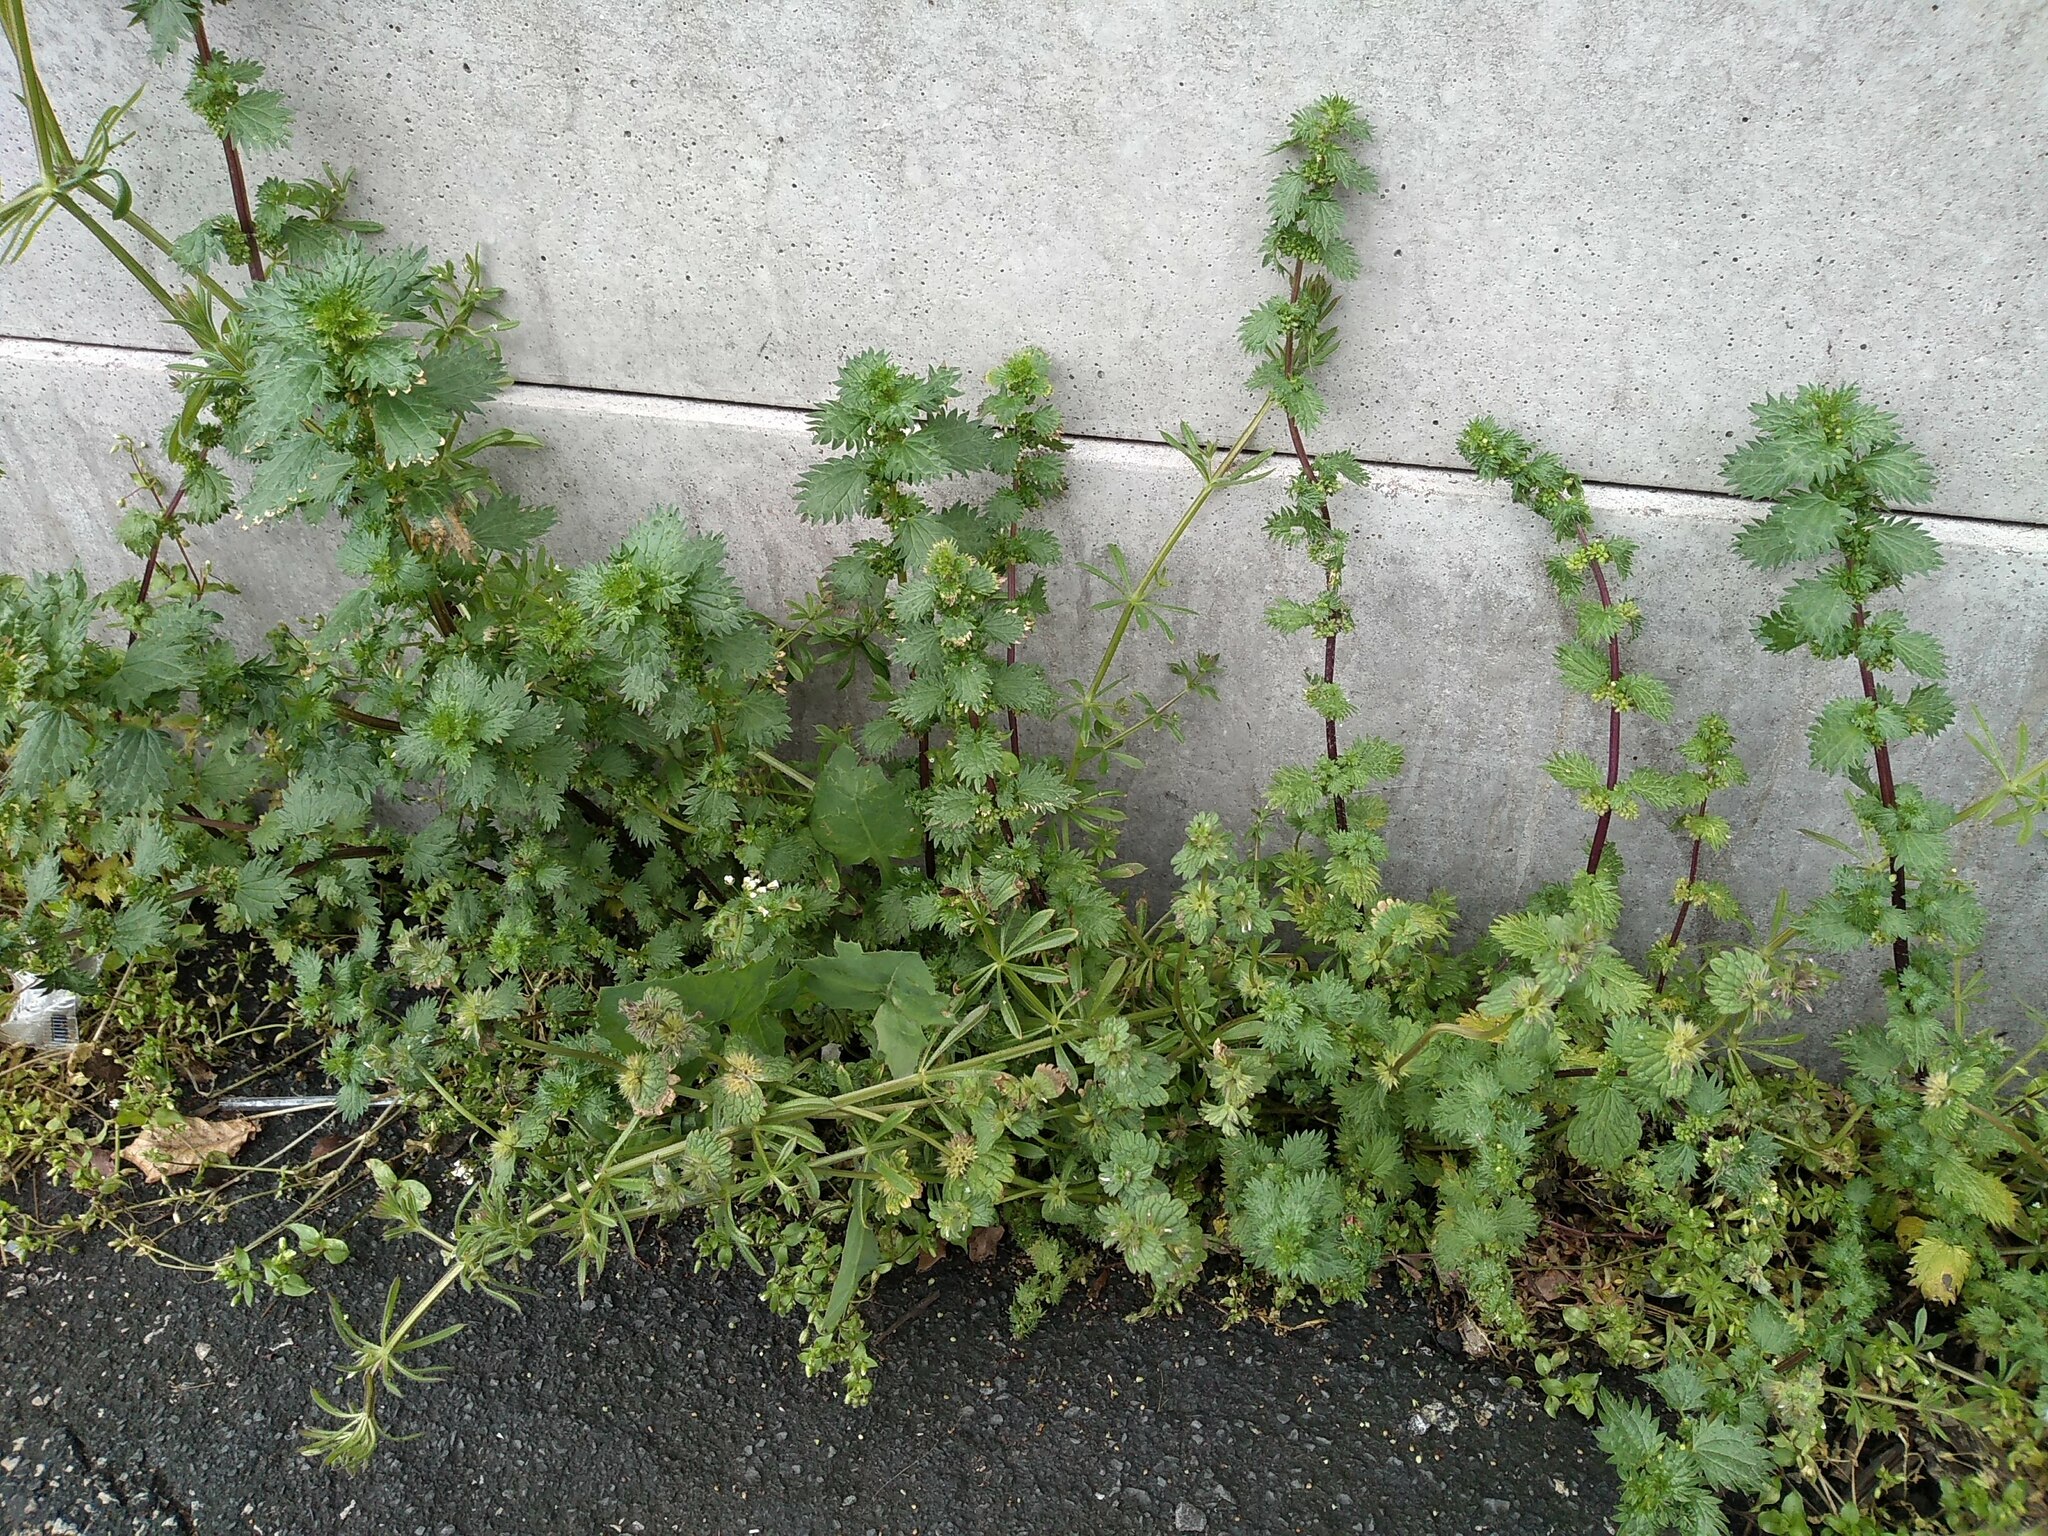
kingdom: Plantae
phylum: Tracheophyta
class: Magnoliopsida
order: Rosales
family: Urticaceae
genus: Urtica
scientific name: Urtica urens
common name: Dwarf nettle
